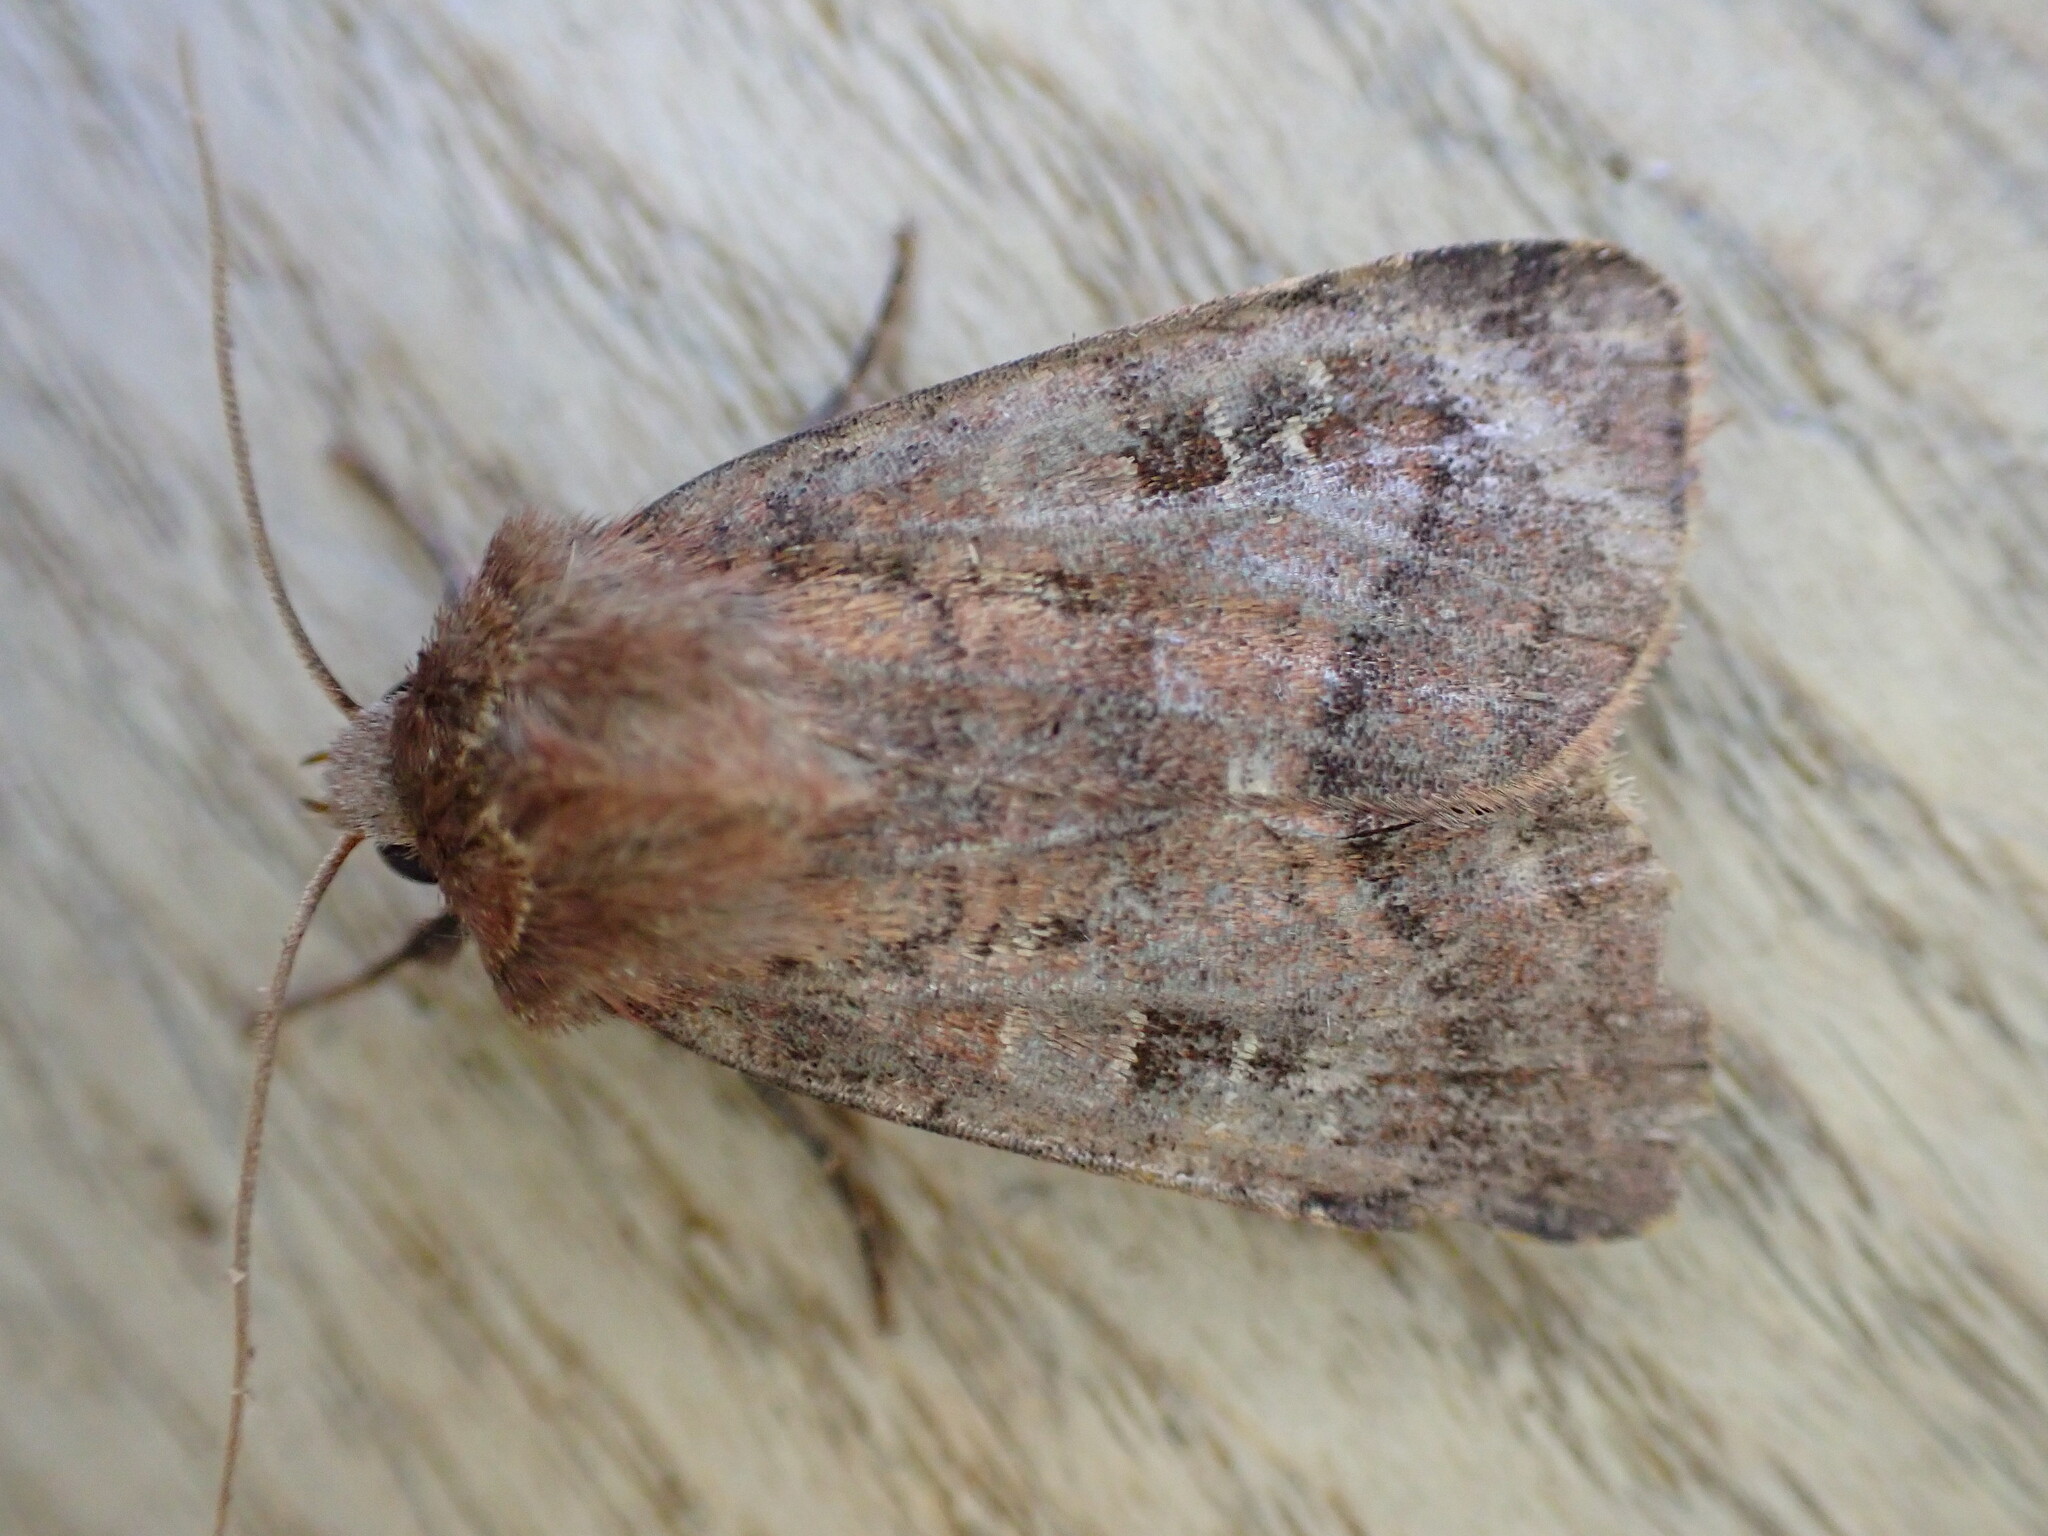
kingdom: Animalia
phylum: Arthropoda
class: Insecta
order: Lepidoptera
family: Noctuidae
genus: Diarsia
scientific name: Diarsia rubi
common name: Small square-spot
